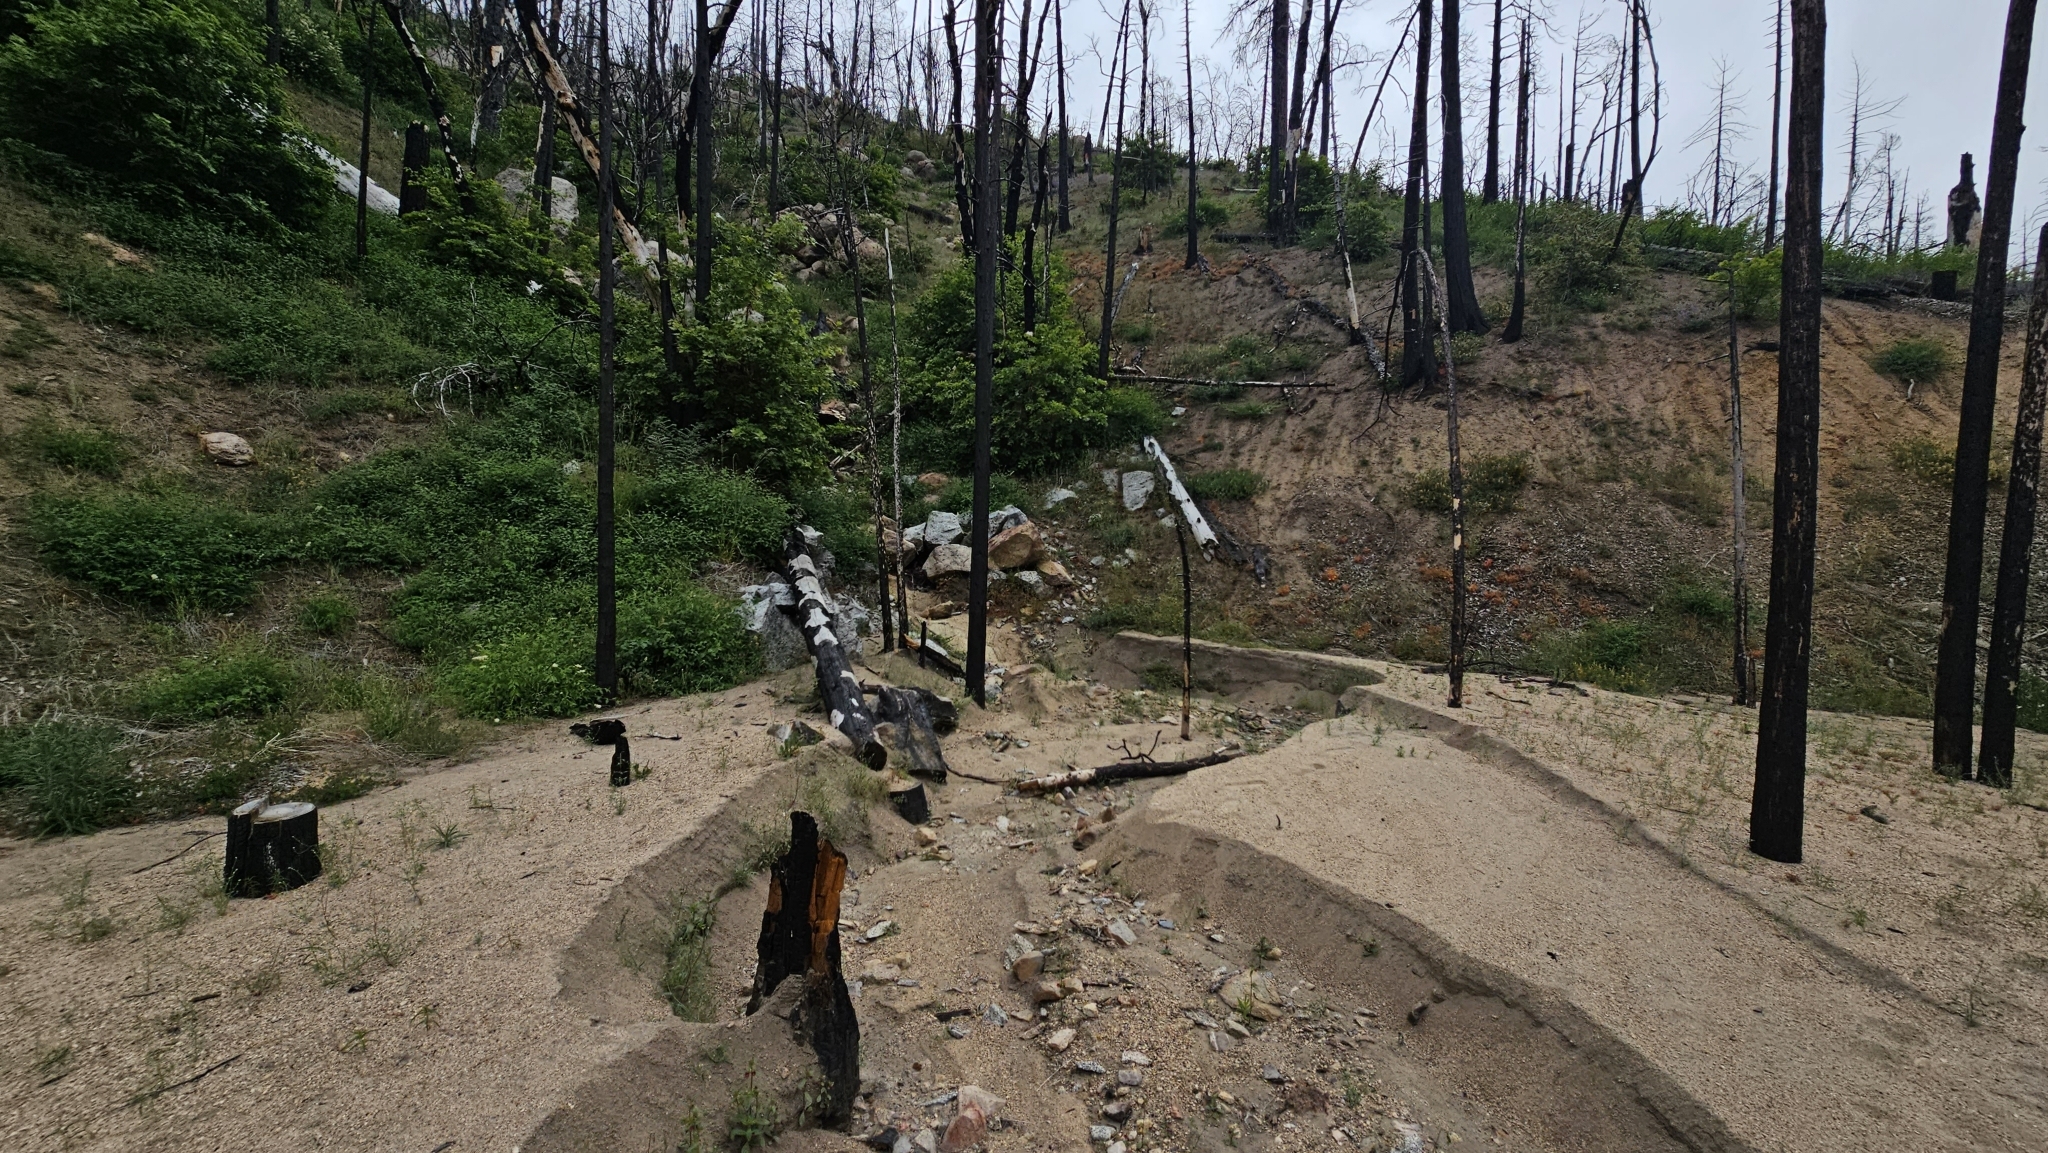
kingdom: Plantae
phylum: Tracheophyta
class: Magnoliopsida
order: Lamiales
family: Phrymaceae
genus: Diplacus
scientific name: Diplacus bolanderi
